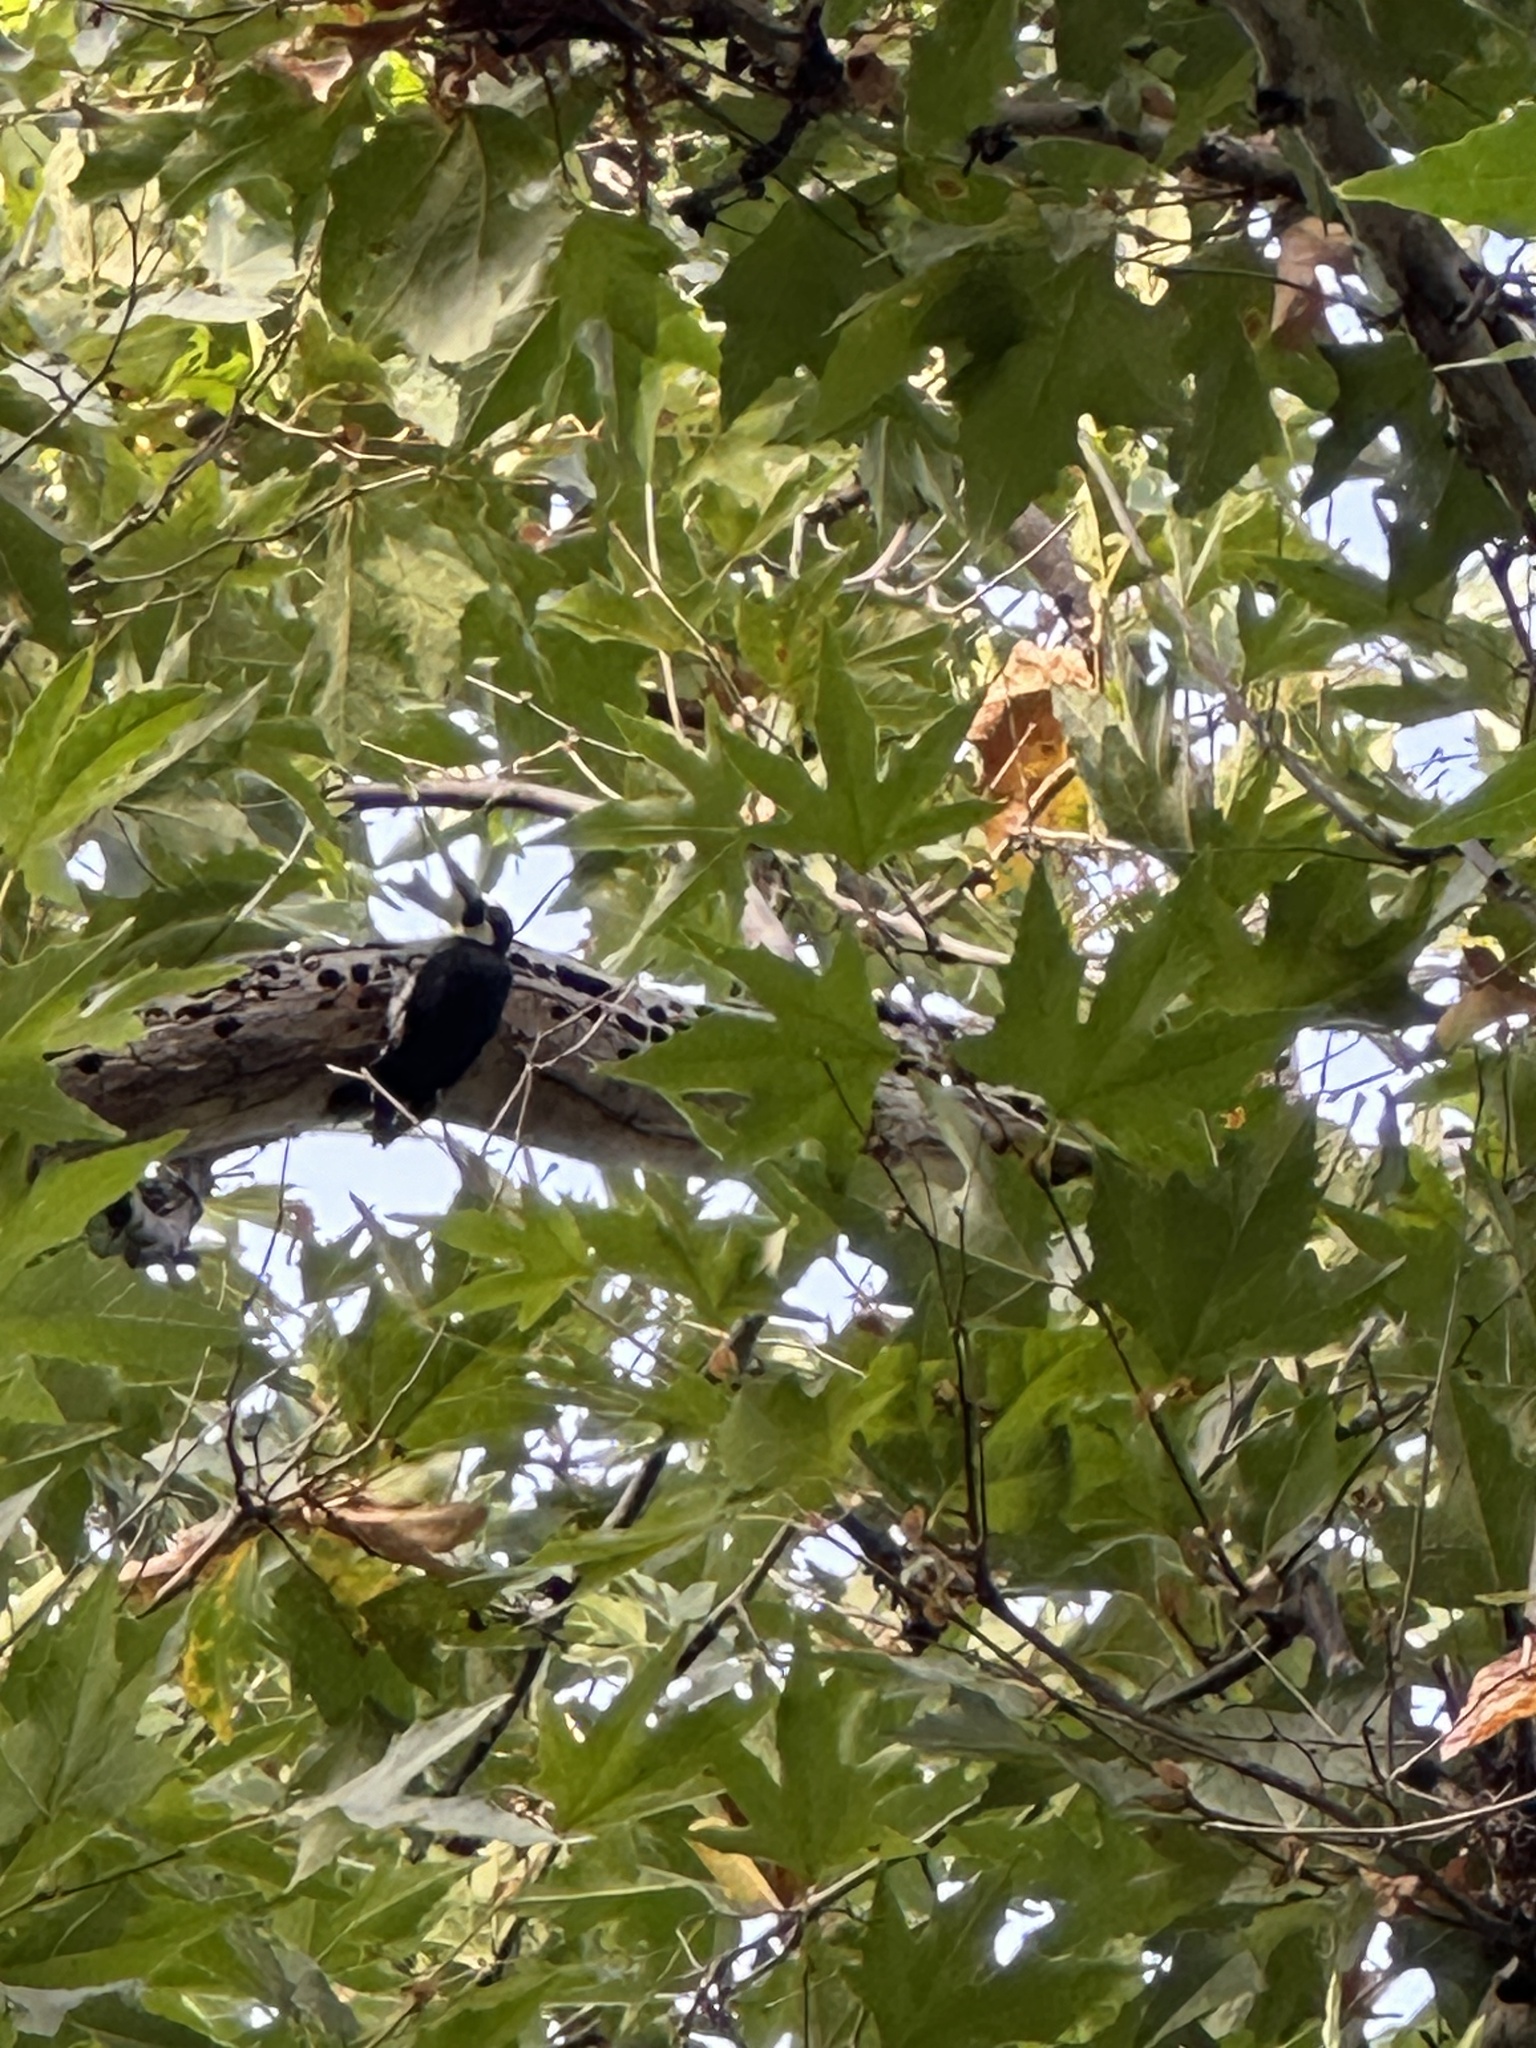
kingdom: Animalia
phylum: Chordata
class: Aves
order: Piciformes
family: Picidae
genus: Melanerpes
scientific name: Melanerpes formicivorus
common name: Acorn woodpecker
